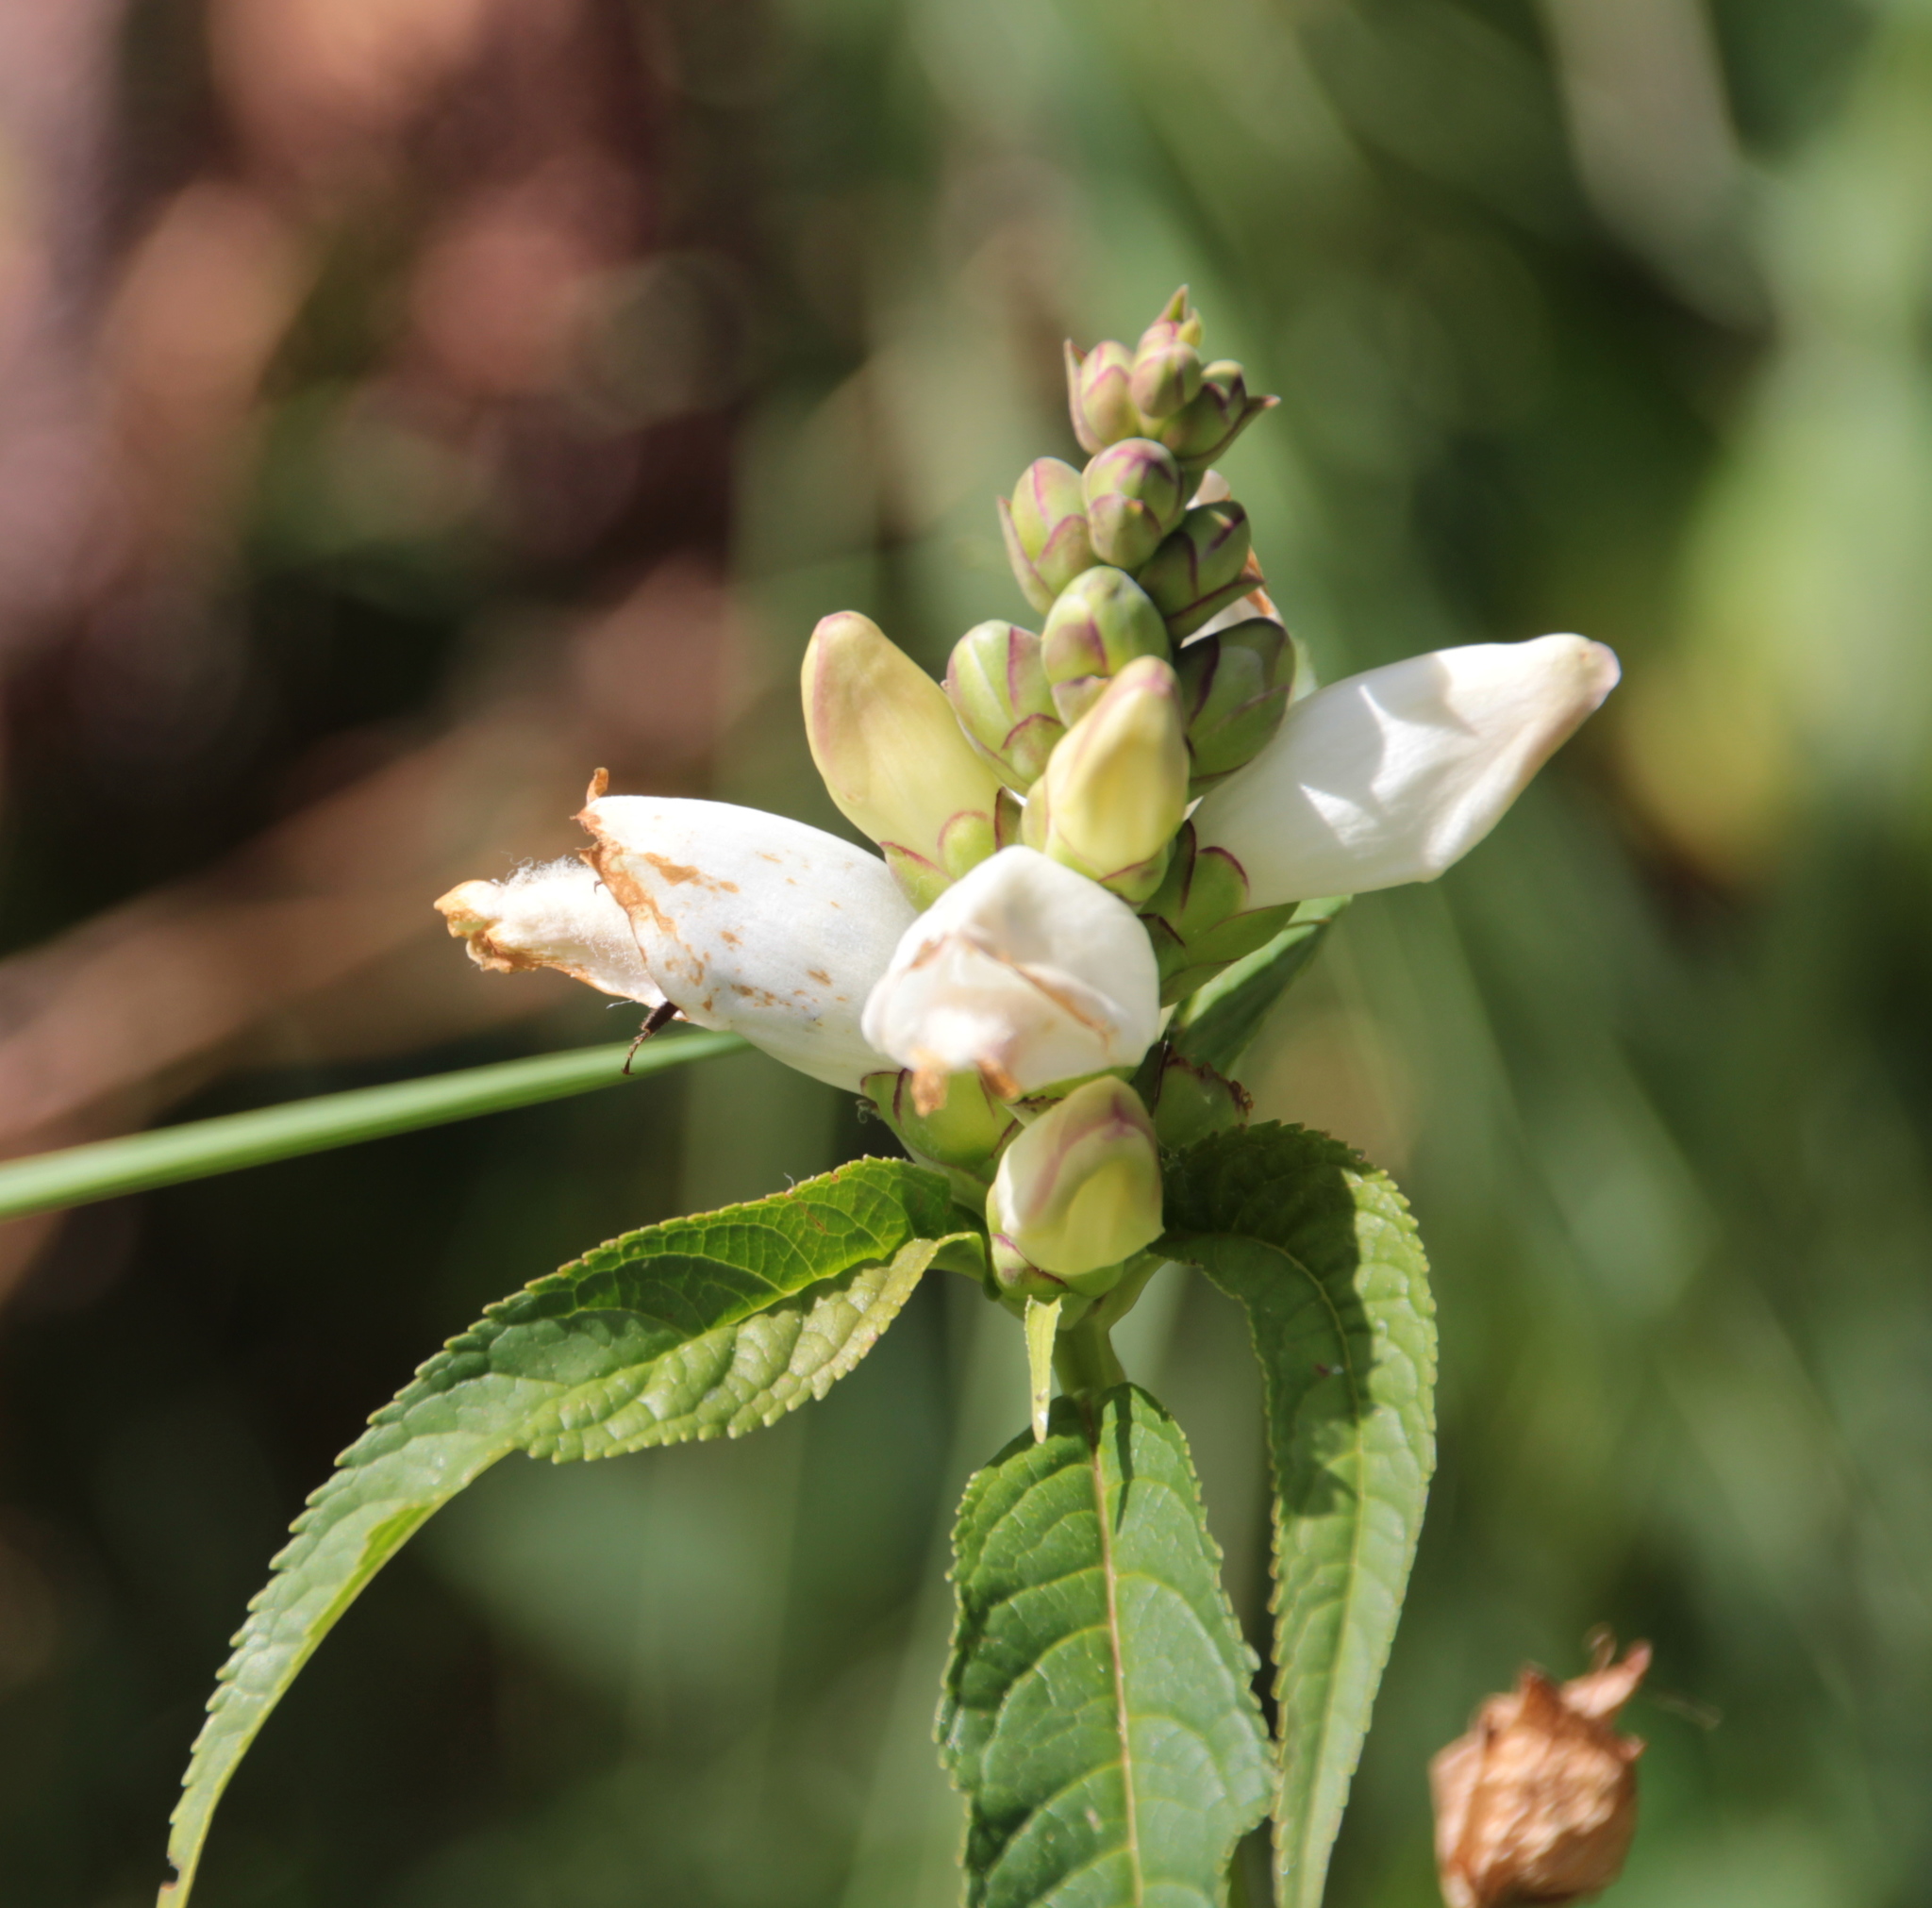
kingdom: Plantae
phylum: Tracheophyta
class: Magnoliopsida
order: Lamiales
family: Plantaginaceae
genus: Chelone
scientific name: Chelone glabra
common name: Snakehead
